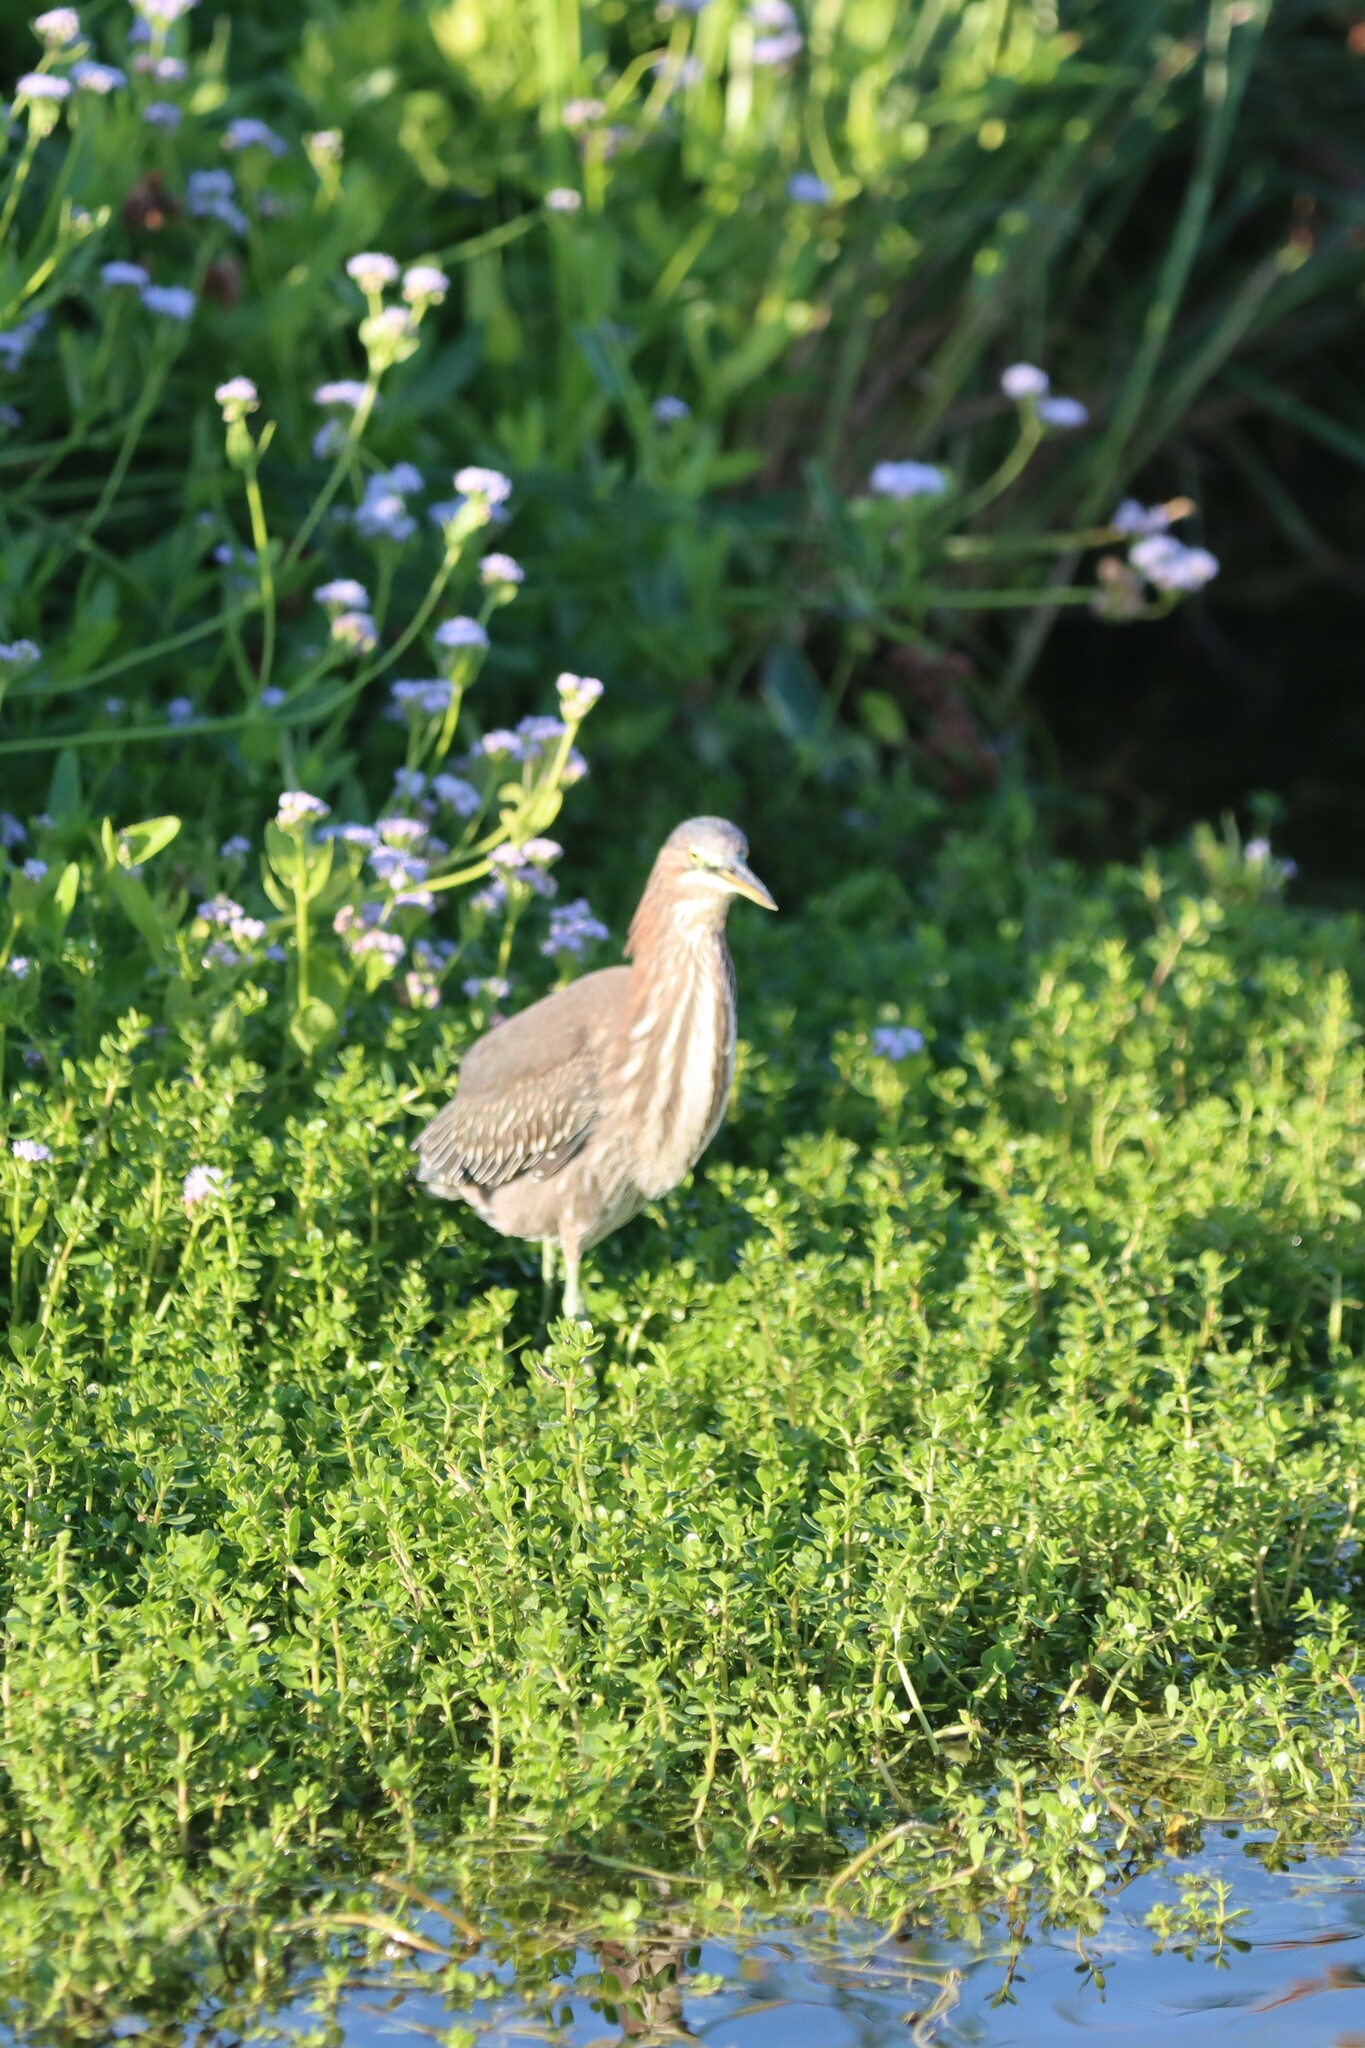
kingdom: Animalia
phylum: Chordata
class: Aves
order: Pelecaniformes
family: Ardeidae
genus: Butorides
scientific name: Butorides virescens
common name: Green heron
